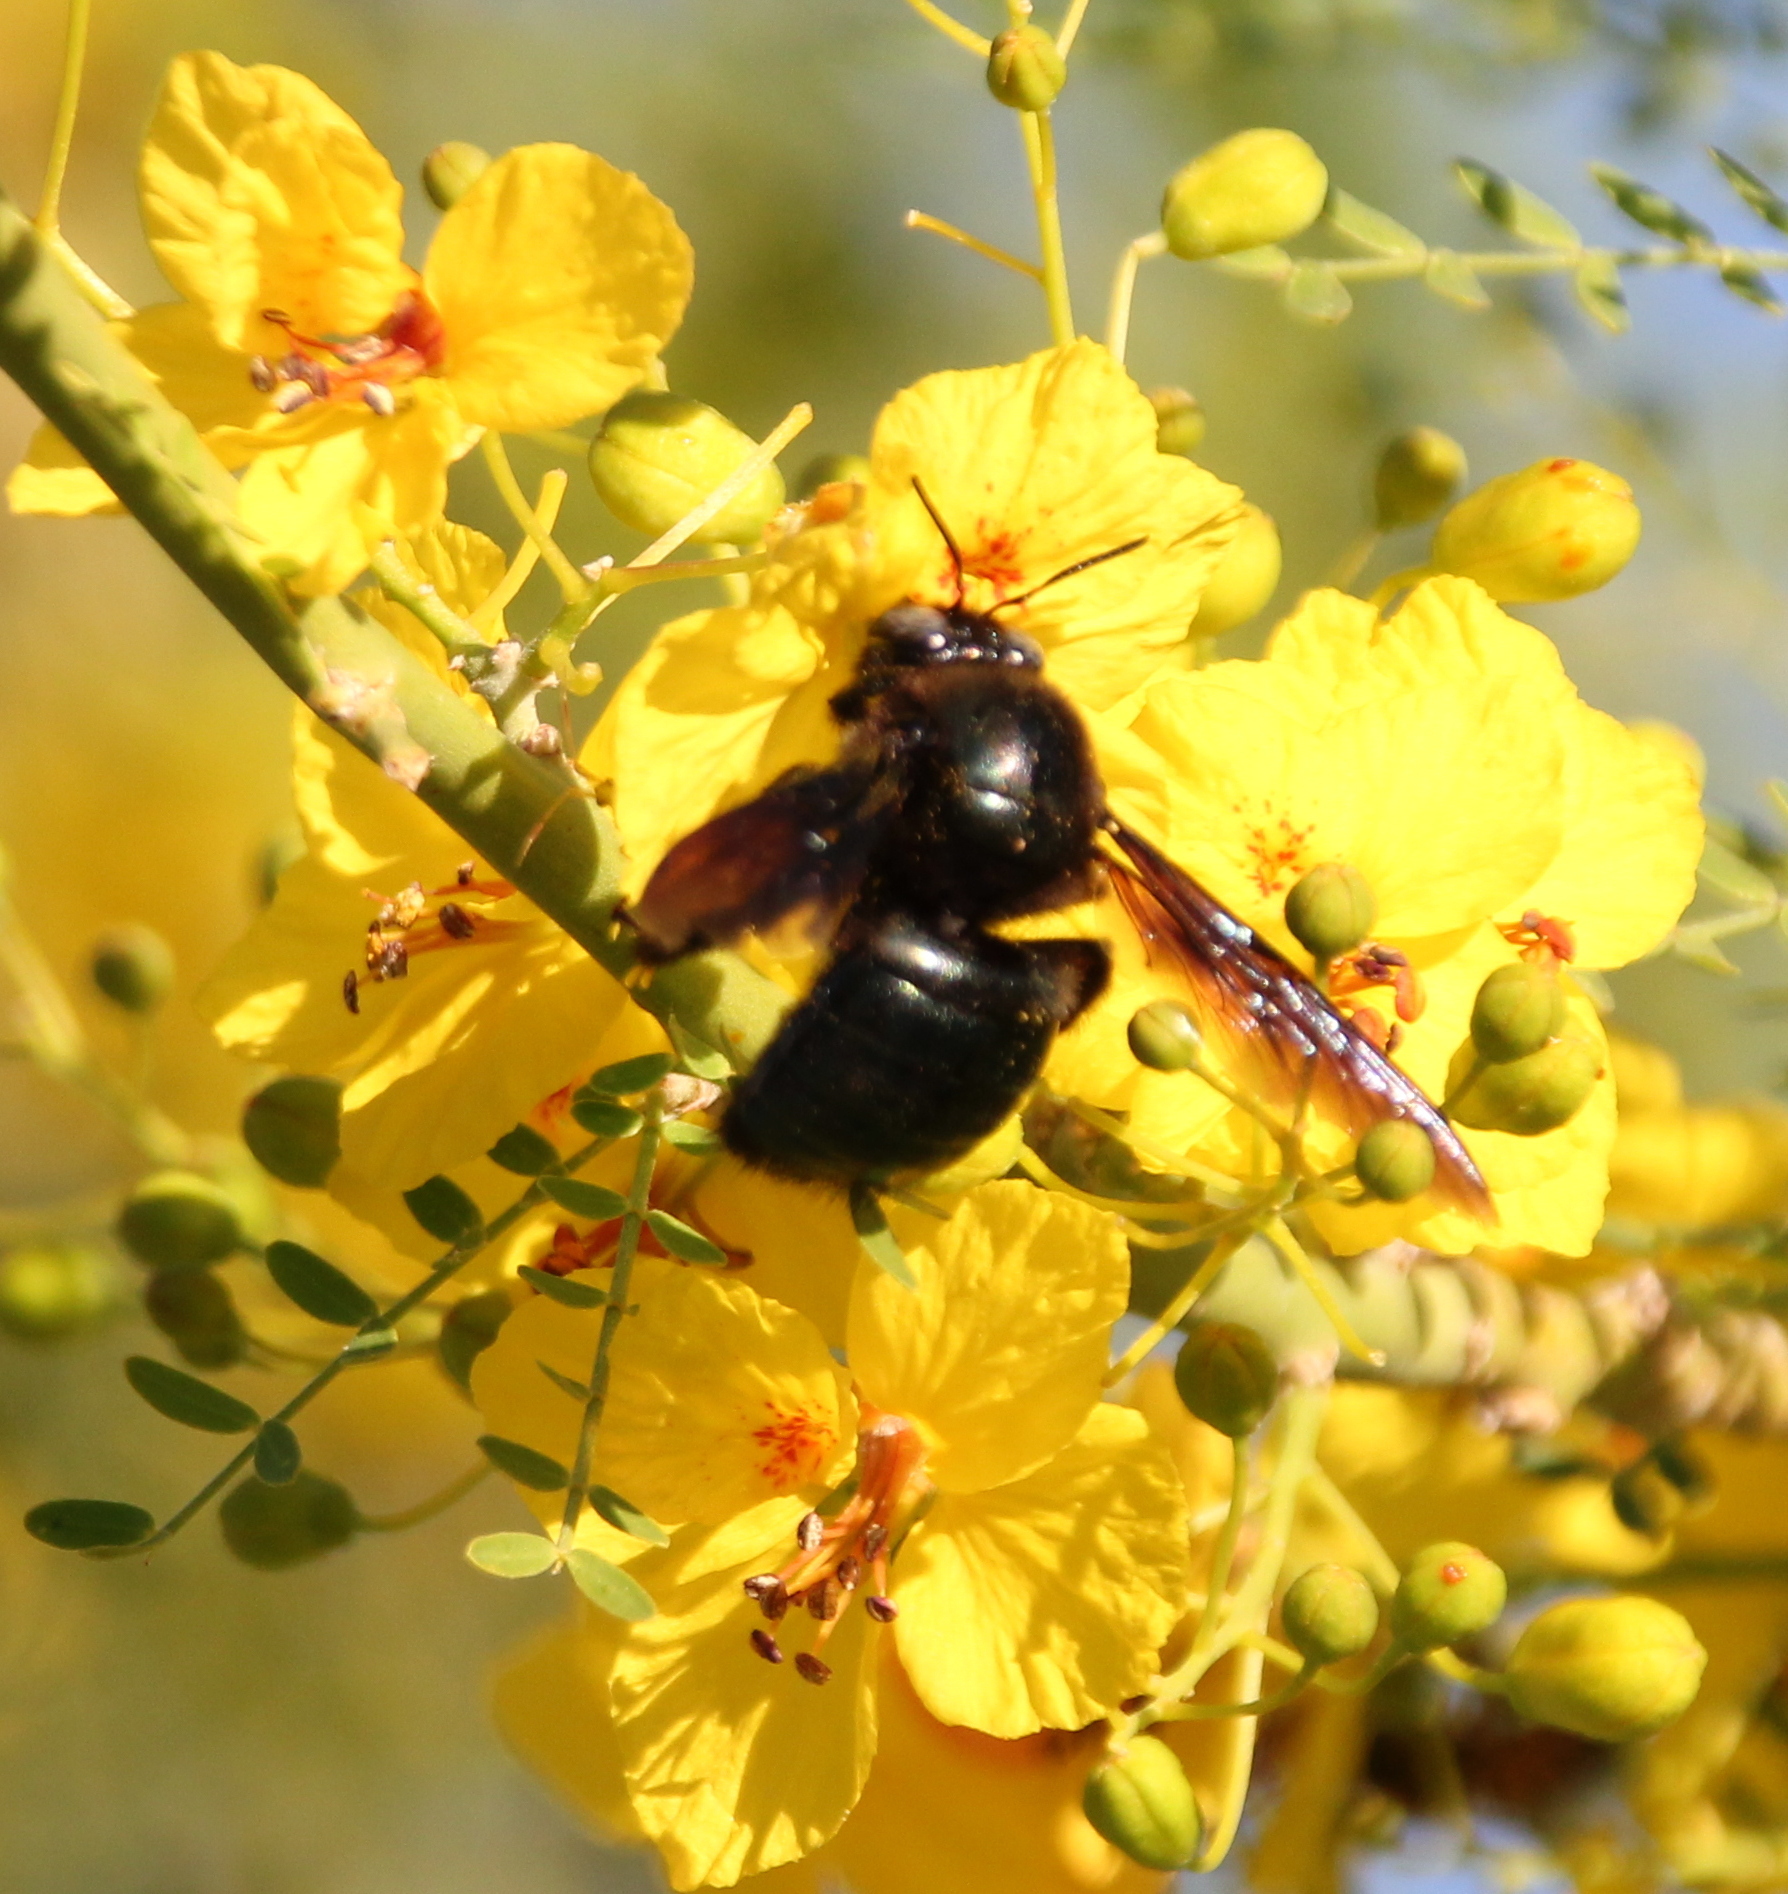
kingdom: Animalia
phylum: Arthropoda
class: Insecta
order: Hymenoptera
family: Apidae
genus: Xylocopa
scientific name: Xylocopa californica
